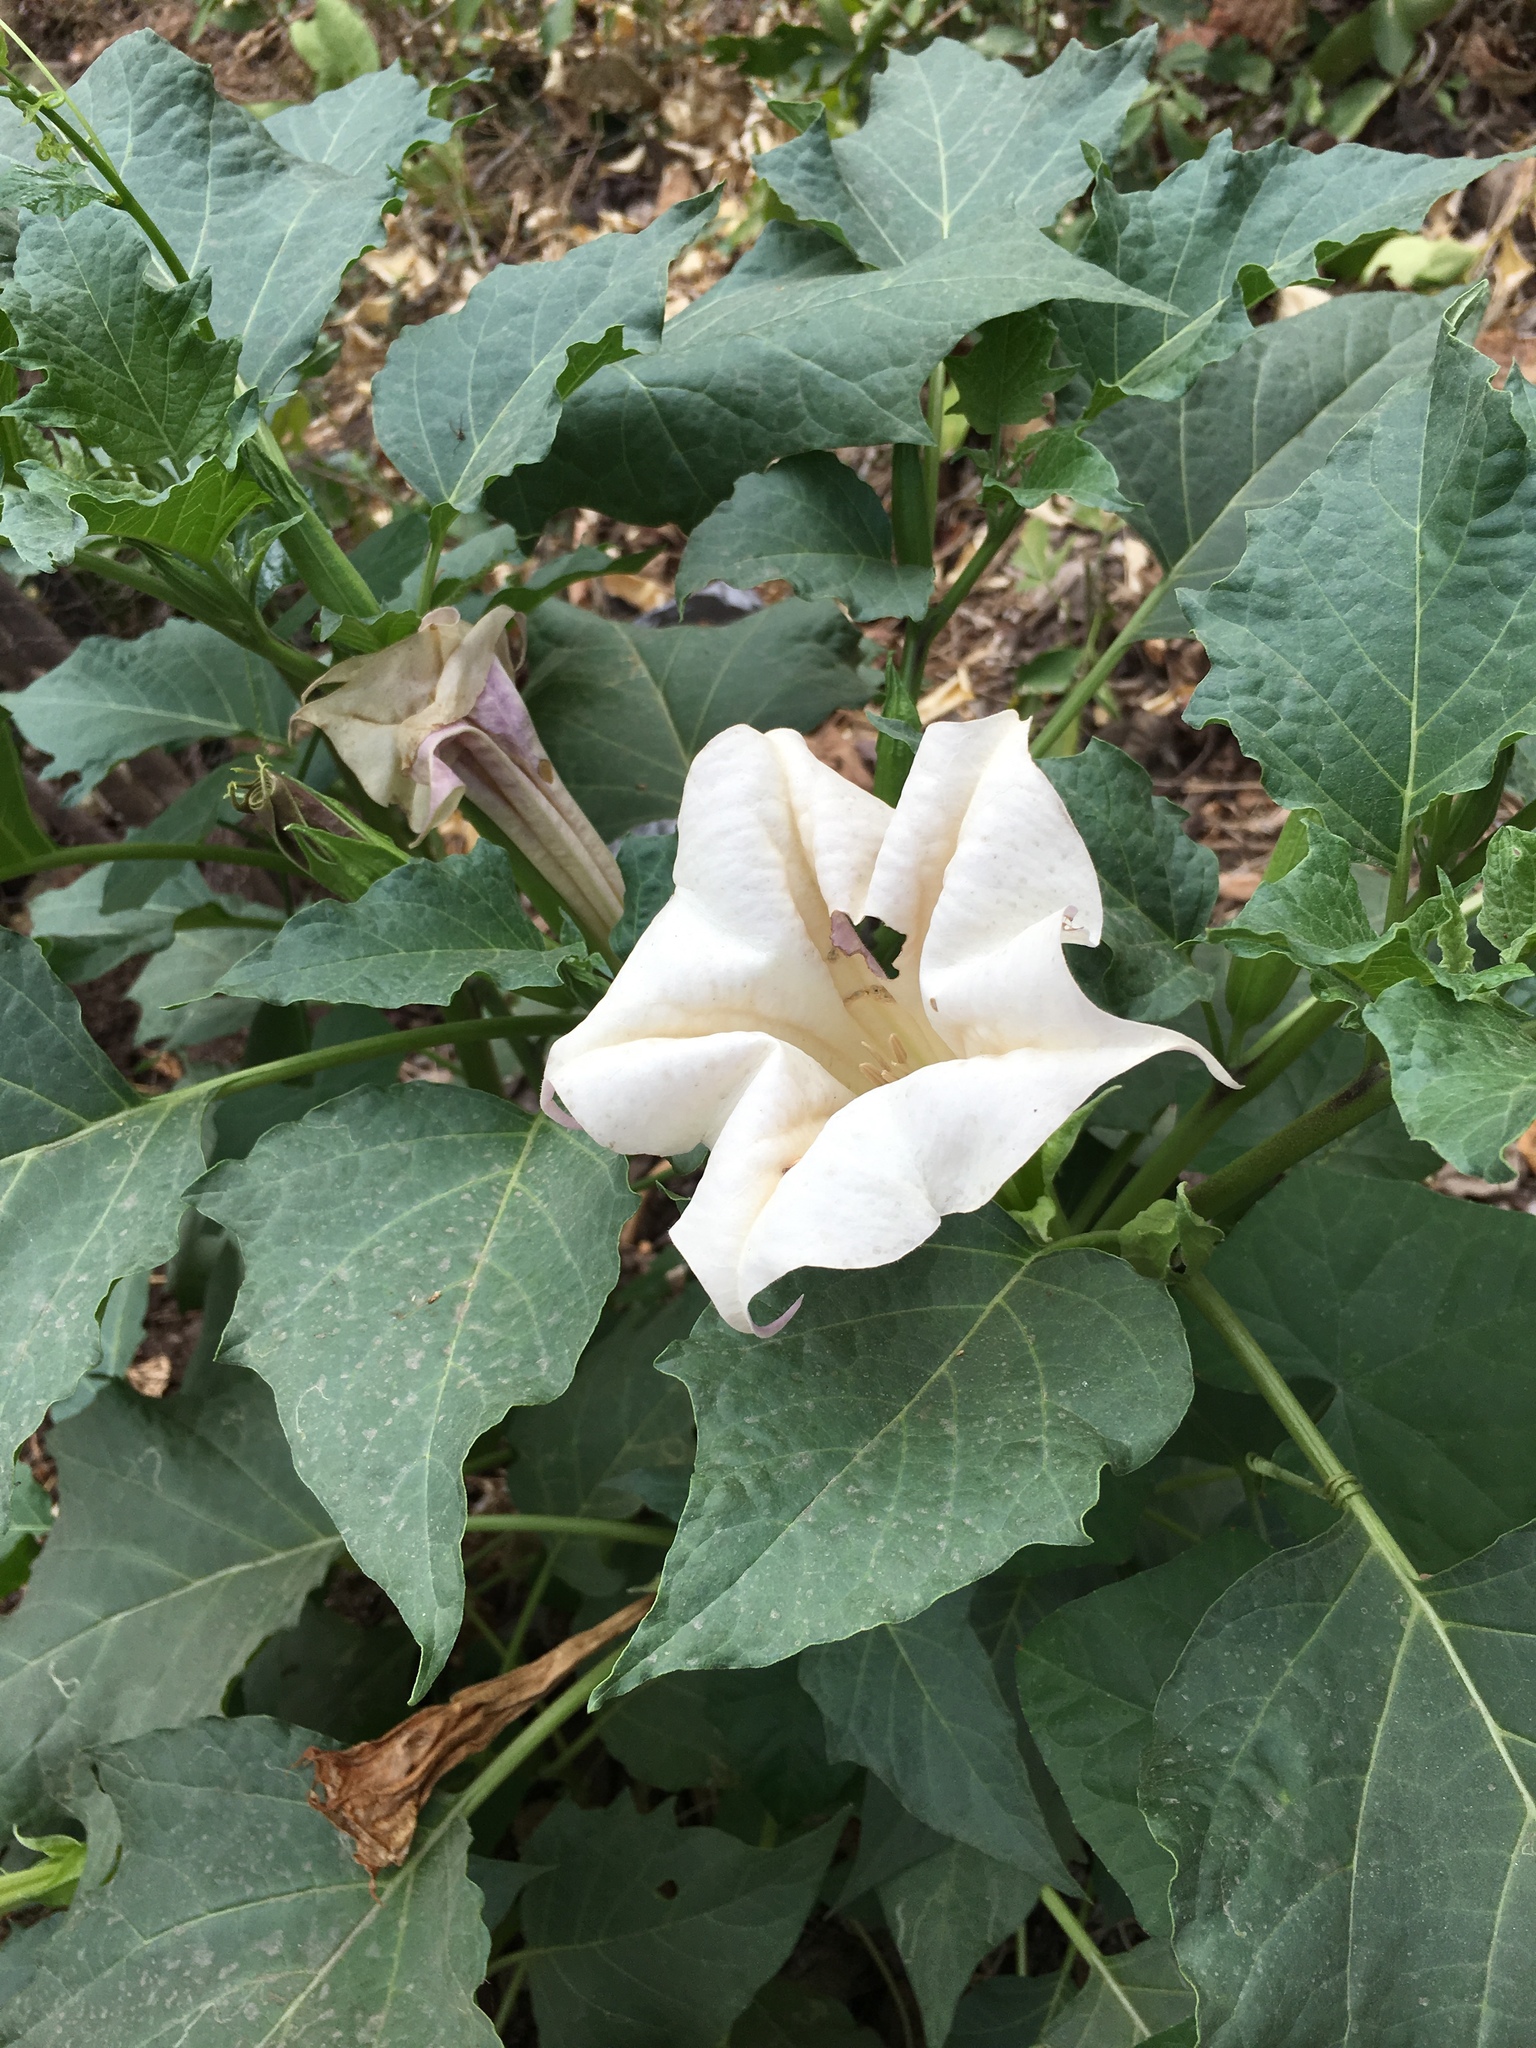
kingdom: Plantae
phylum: Tracheophyta
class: Magnoliopsida
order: Solanales
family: Solanaceae
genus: Datura
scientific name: Datura innoxia
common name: Downy thorn-apple
